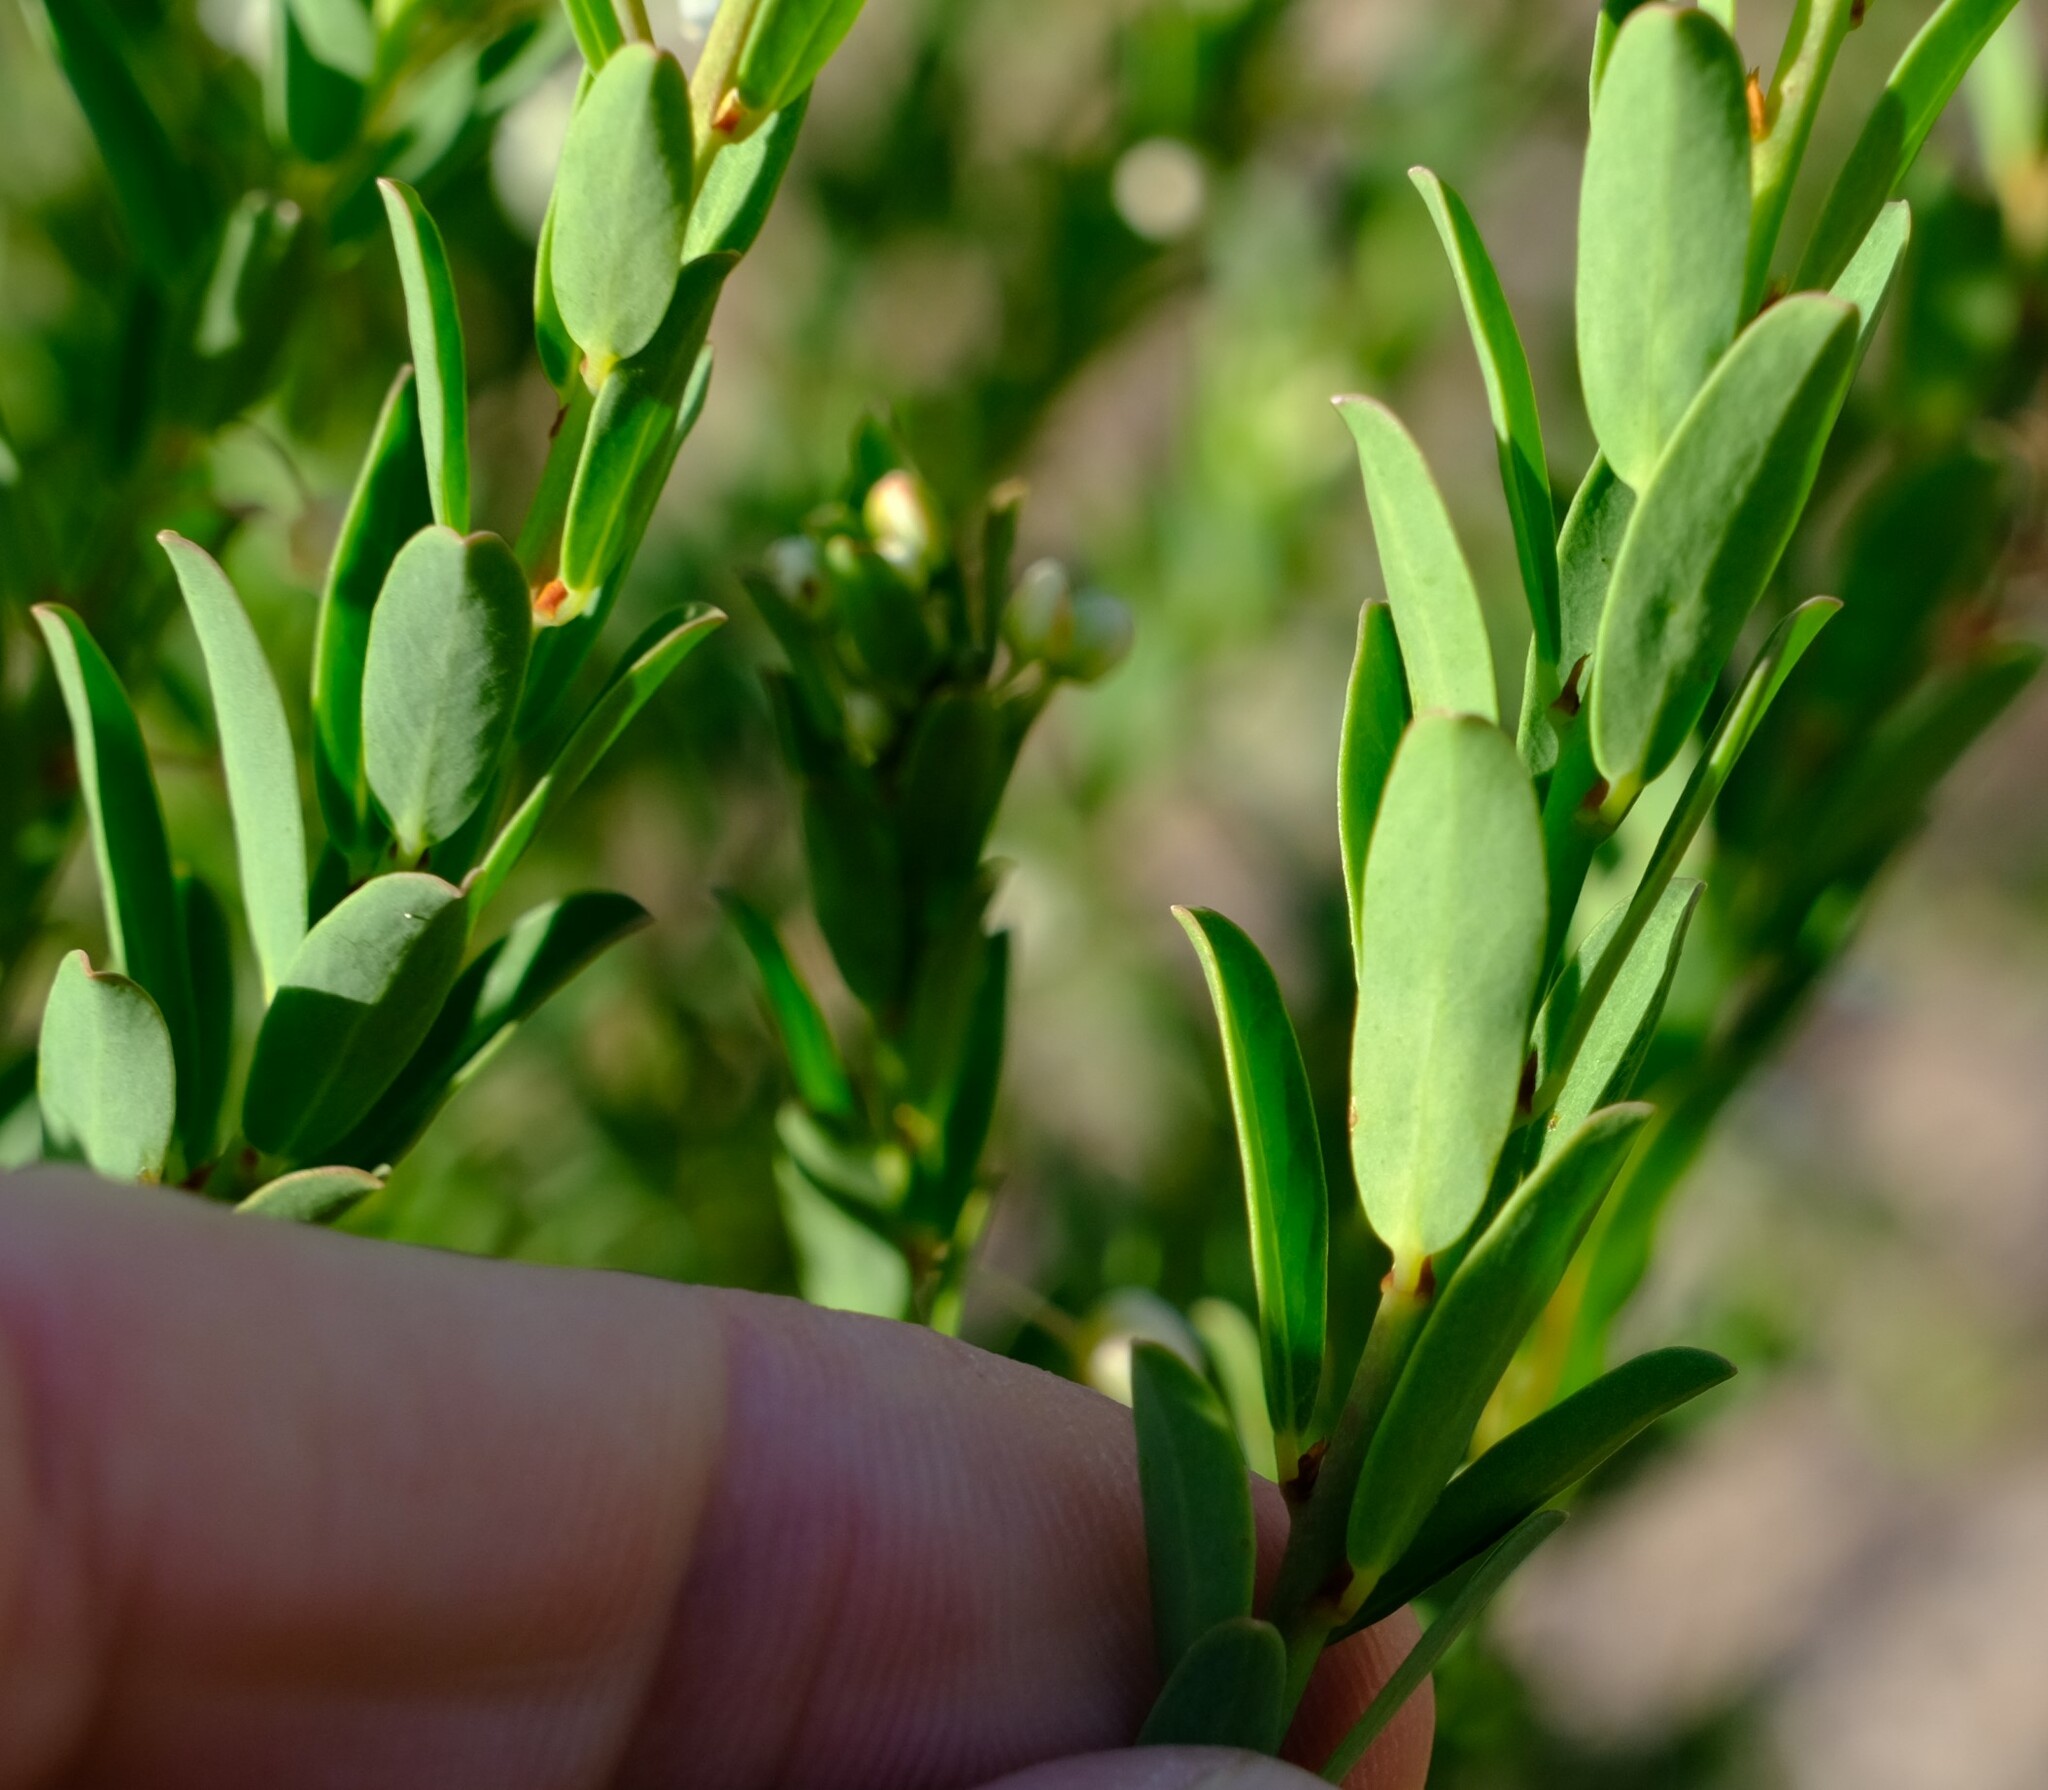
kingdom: Plantae
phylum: Tracheophyta
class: Magnoliopsida
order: Malpighiales
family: Phyllanthaceae
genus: Phyllanthus
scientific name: Phyllanthus calycinus
